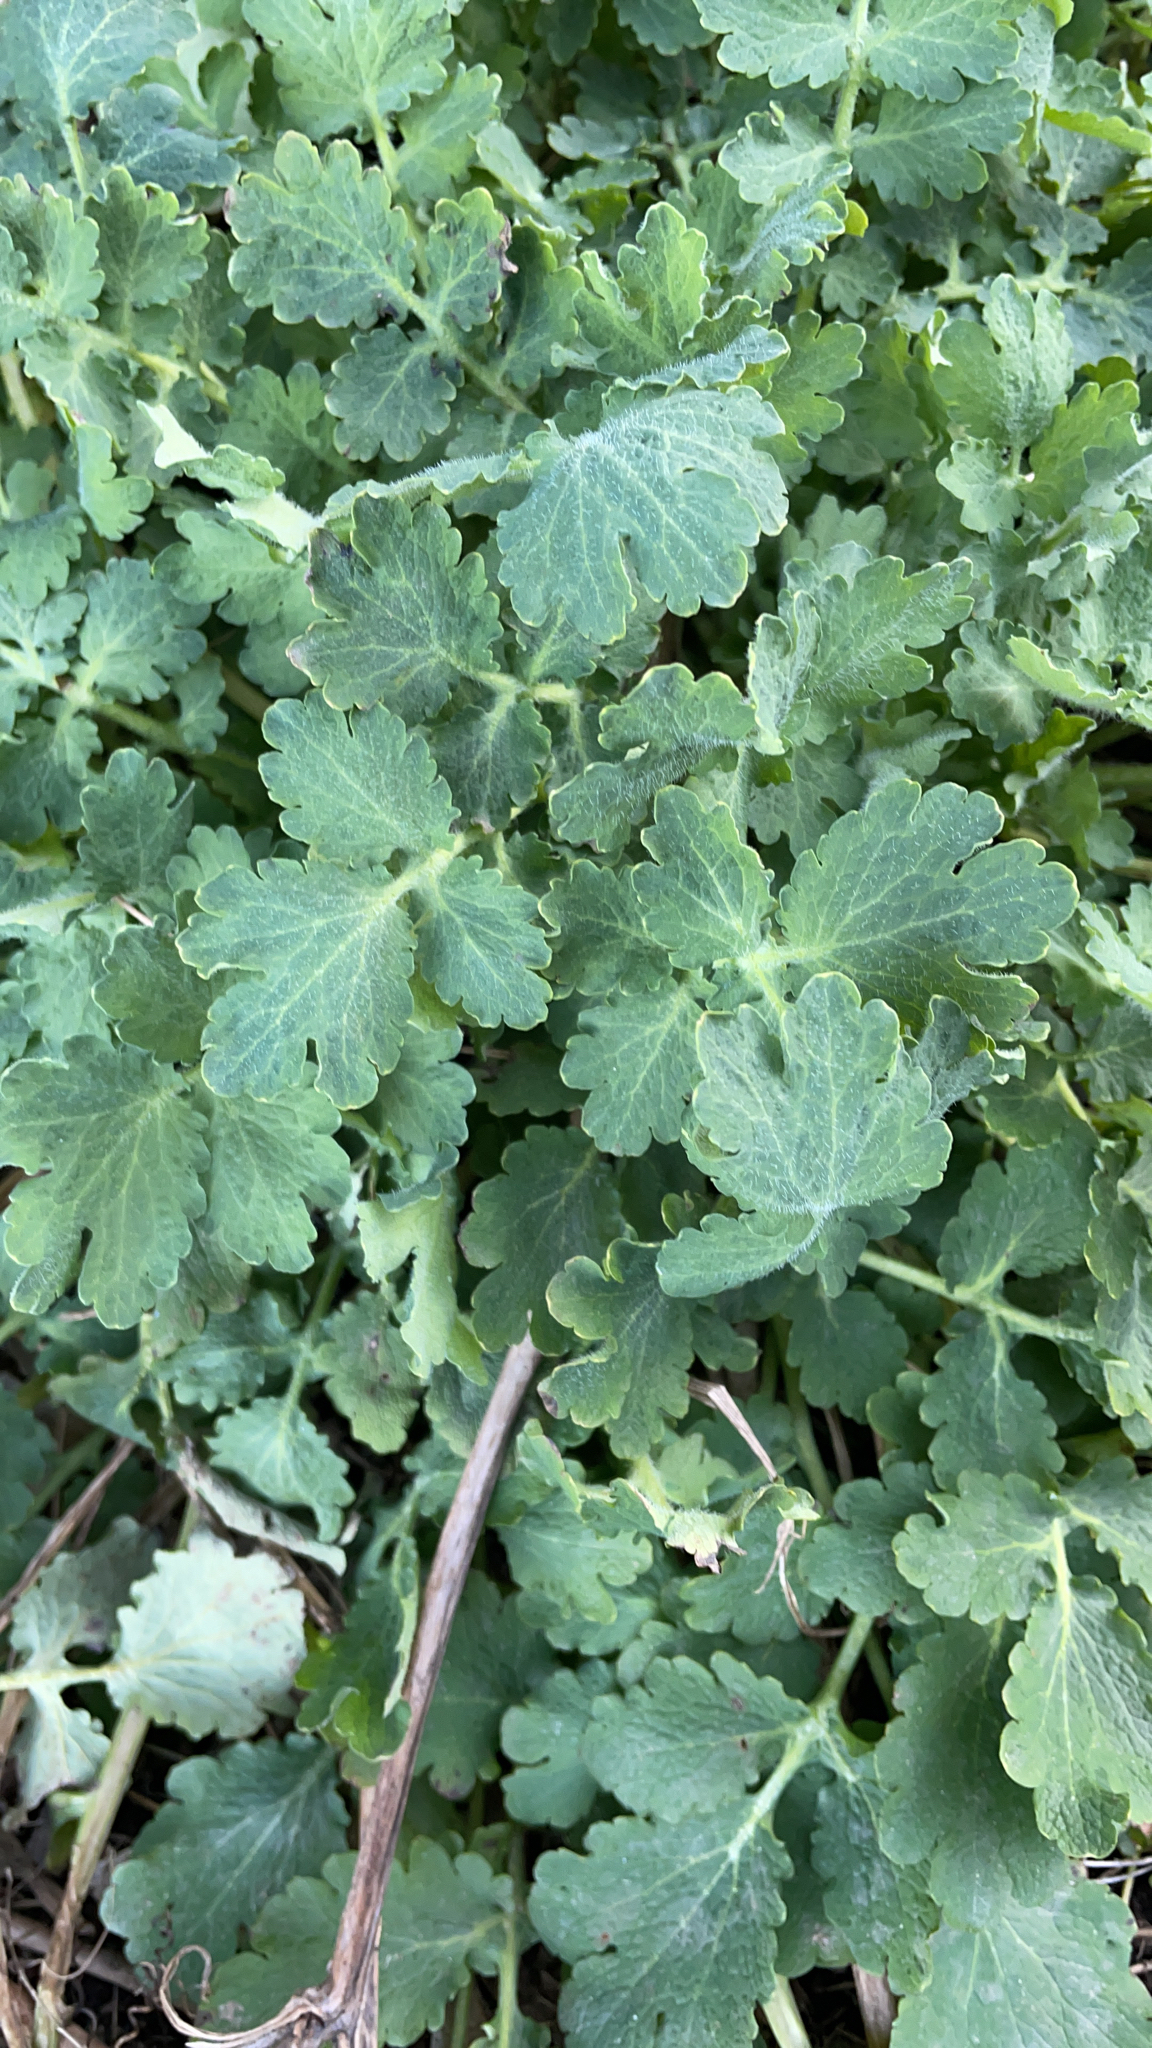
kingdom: Plantae
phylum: Tracheophyta
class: Magnoliopsida
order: Ranunculales
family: Papaveraceae
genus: Chelidonium
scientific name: Chelidonium majus
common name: Greater celandine
